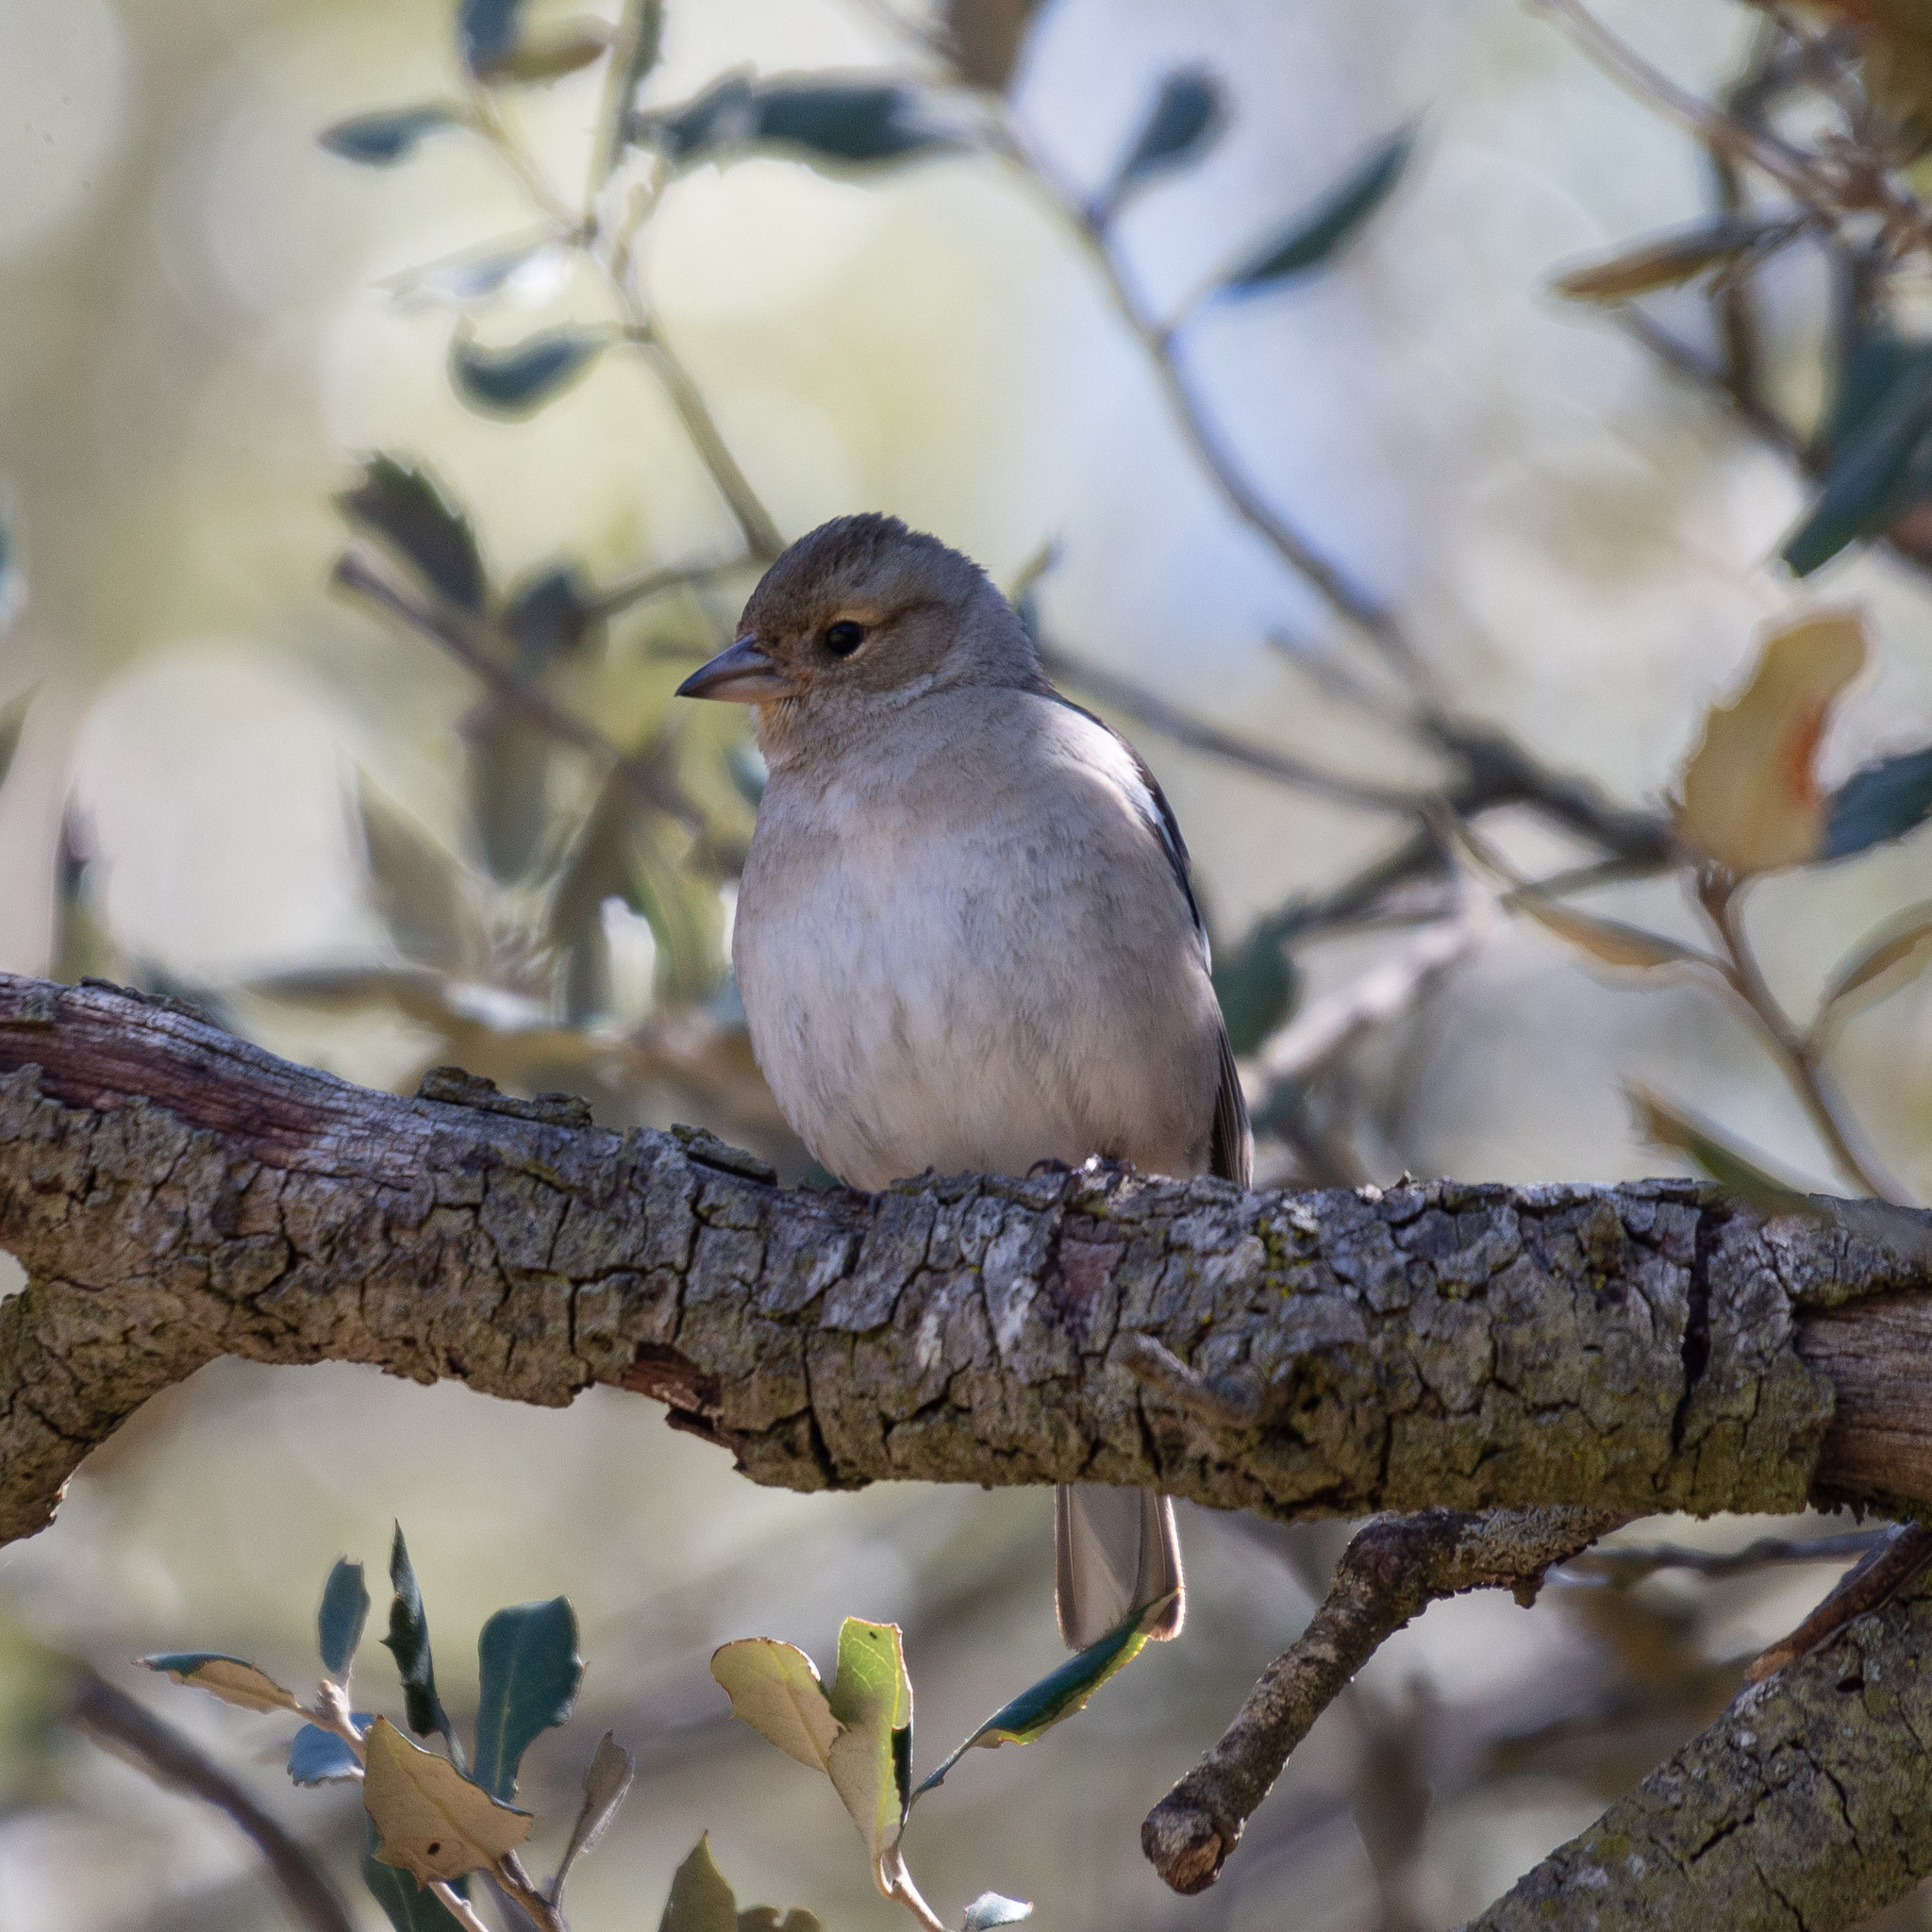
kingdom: Animalia
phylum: Chordata
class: Aves
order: Passeriformes
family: Fringillidae
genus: Fringilla
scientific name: Fringilla coelebs
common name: Common chaffinch
